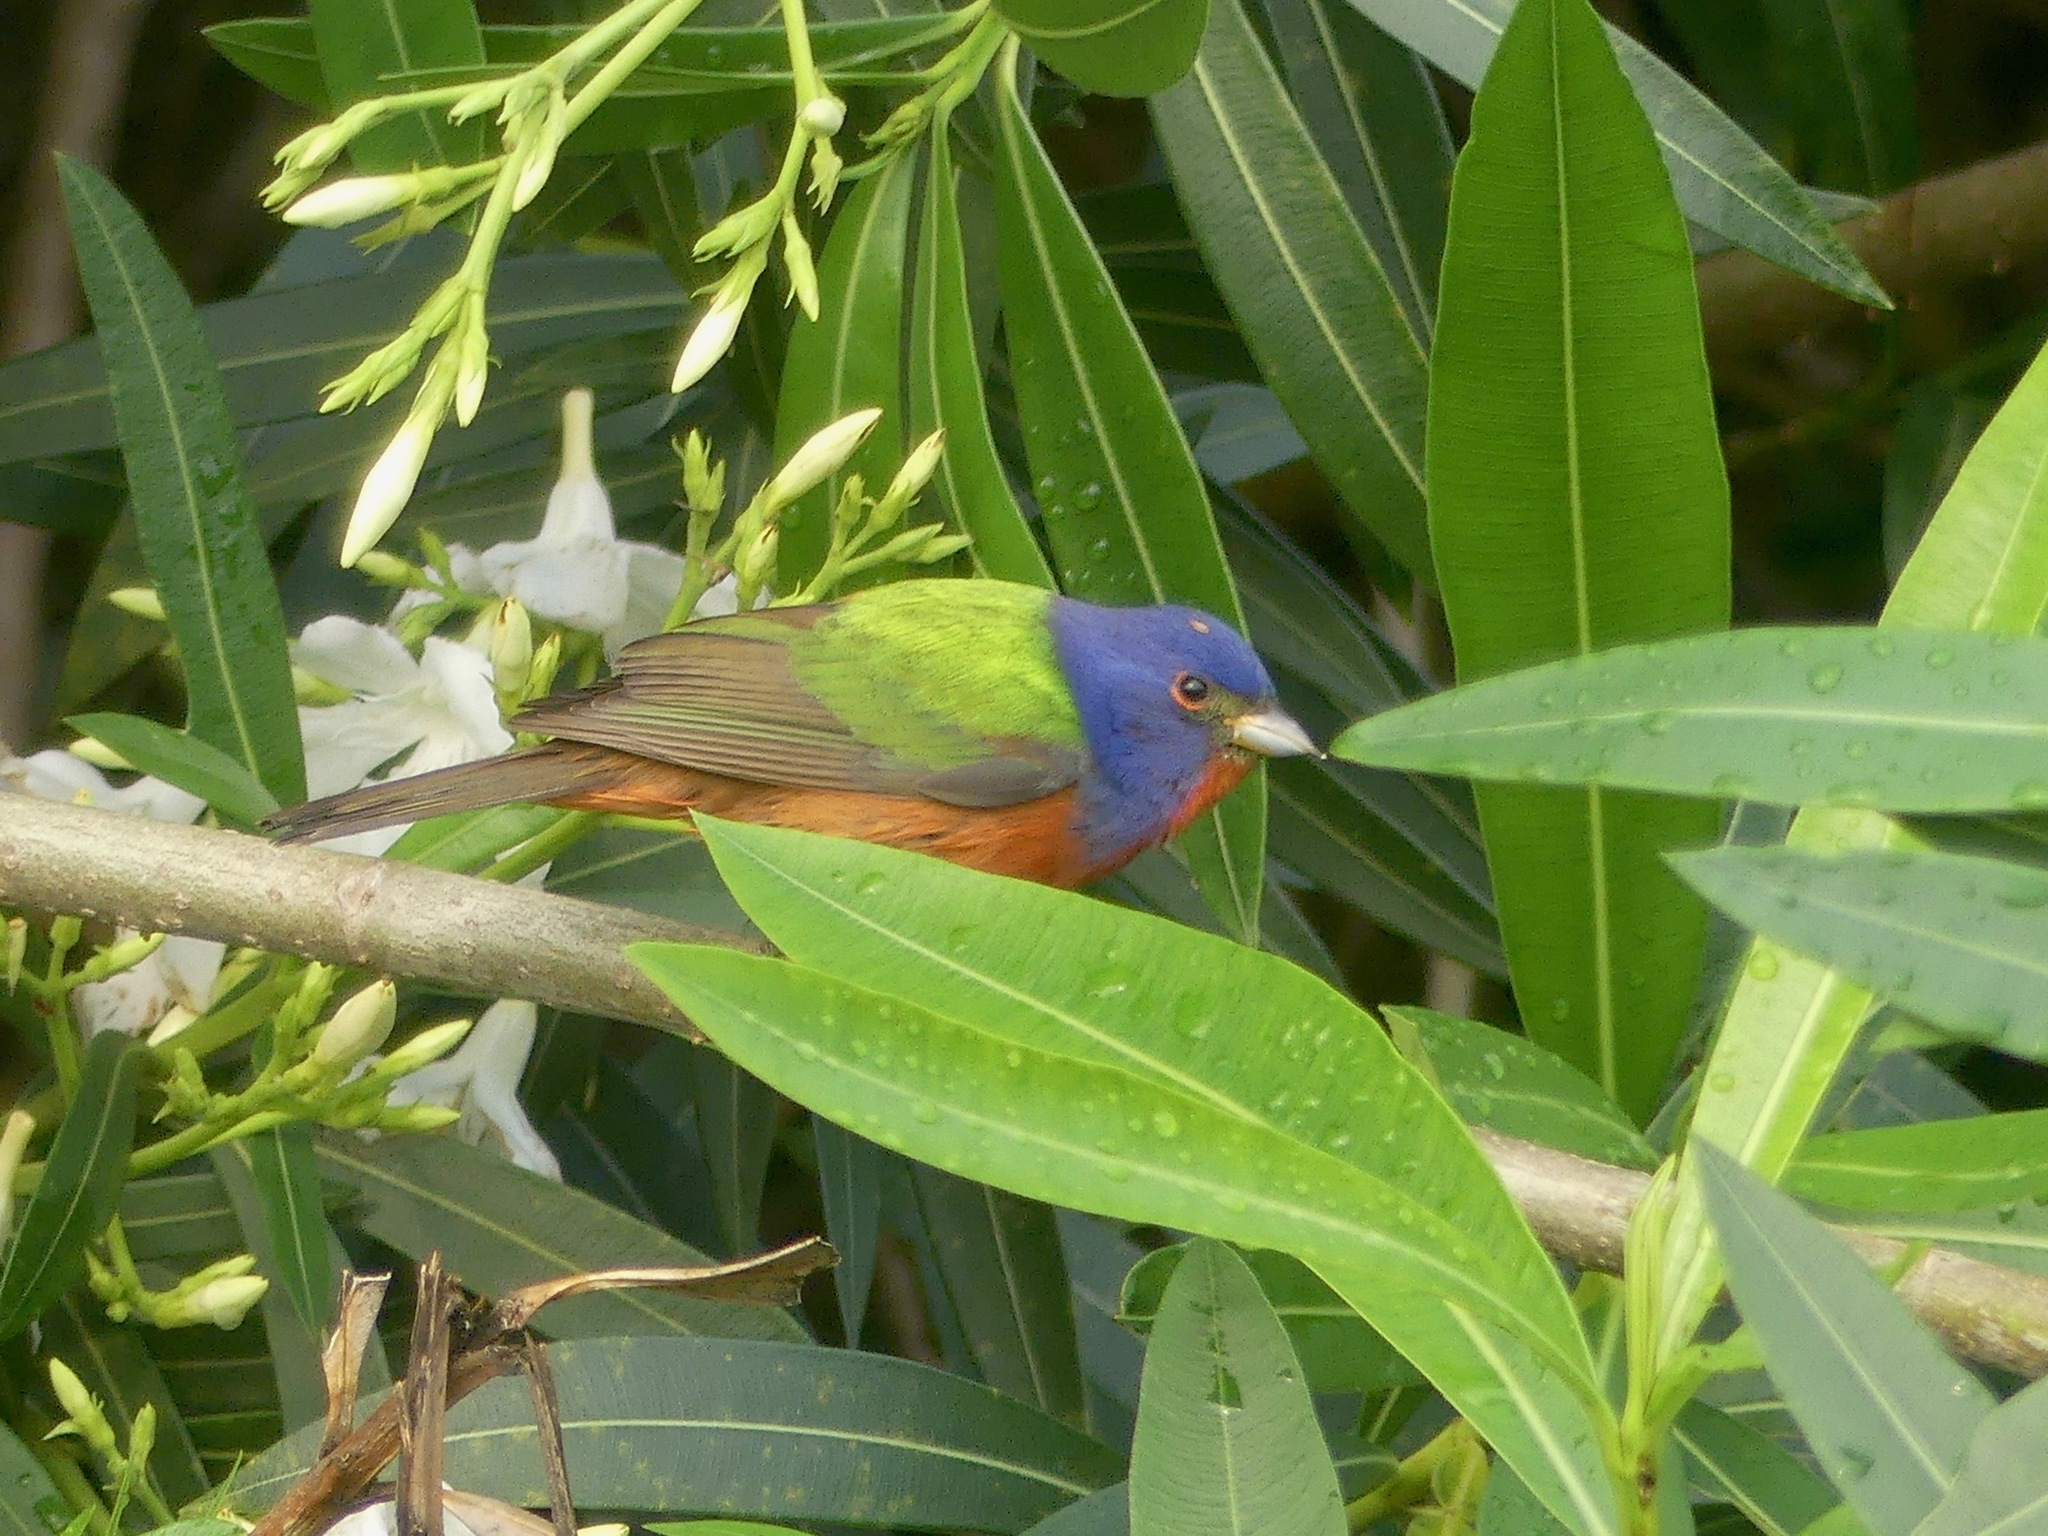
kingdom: Animalia
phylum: Chordata
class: Aves
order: Passeriformes
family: Cardinalidae
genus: Passerina
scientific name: Passerina ciris
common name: Painted bunting
